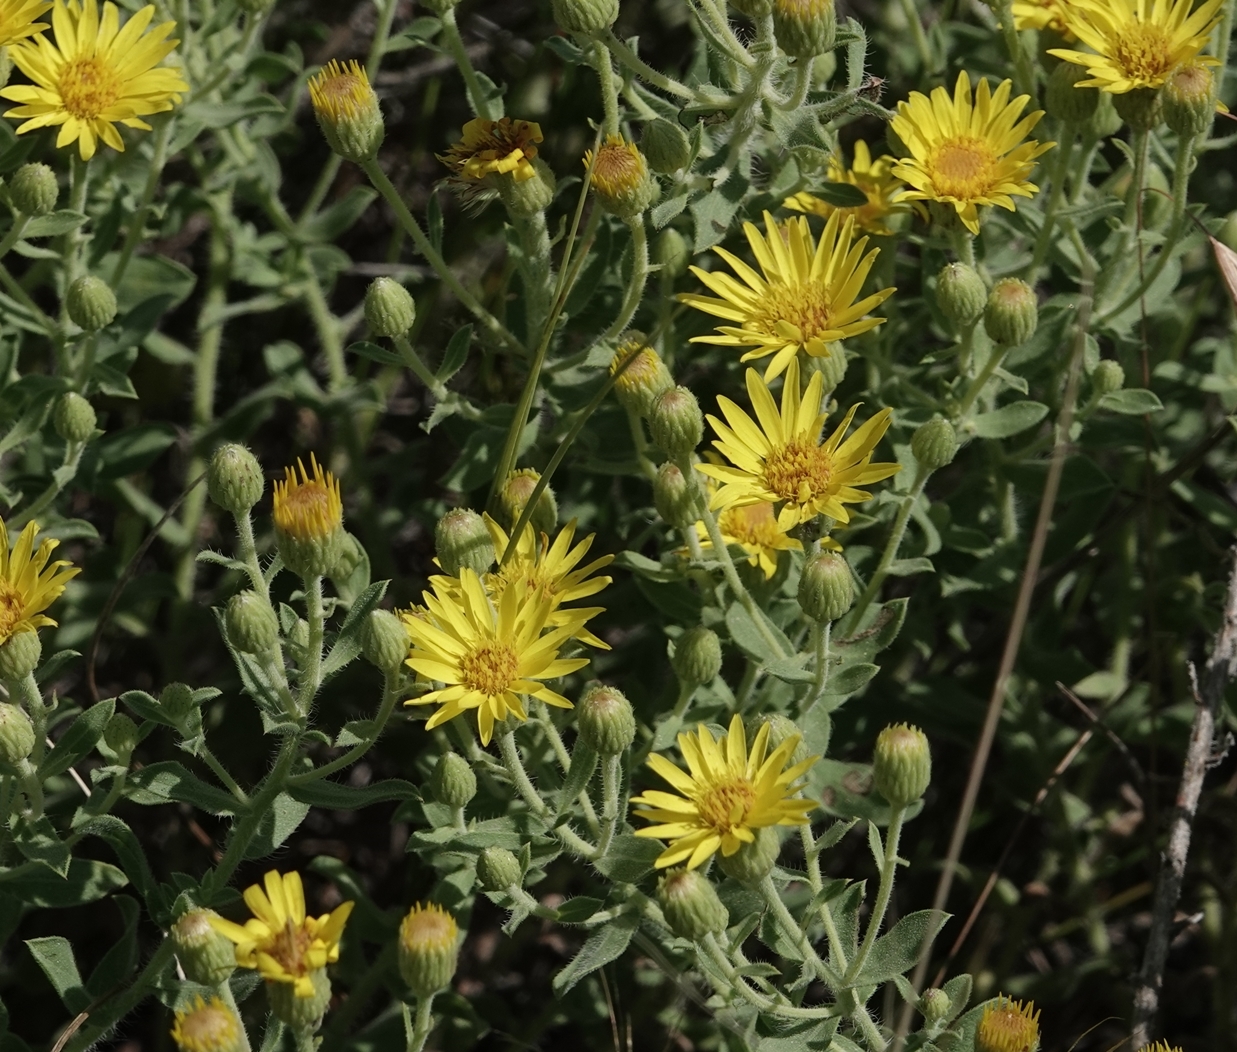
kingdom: Plantae
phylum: Tracheophyta
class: Magnoliopsida
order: Asterales
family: Asteraceae
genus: Heterotheca
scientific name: Heterotheca hirsutissima
